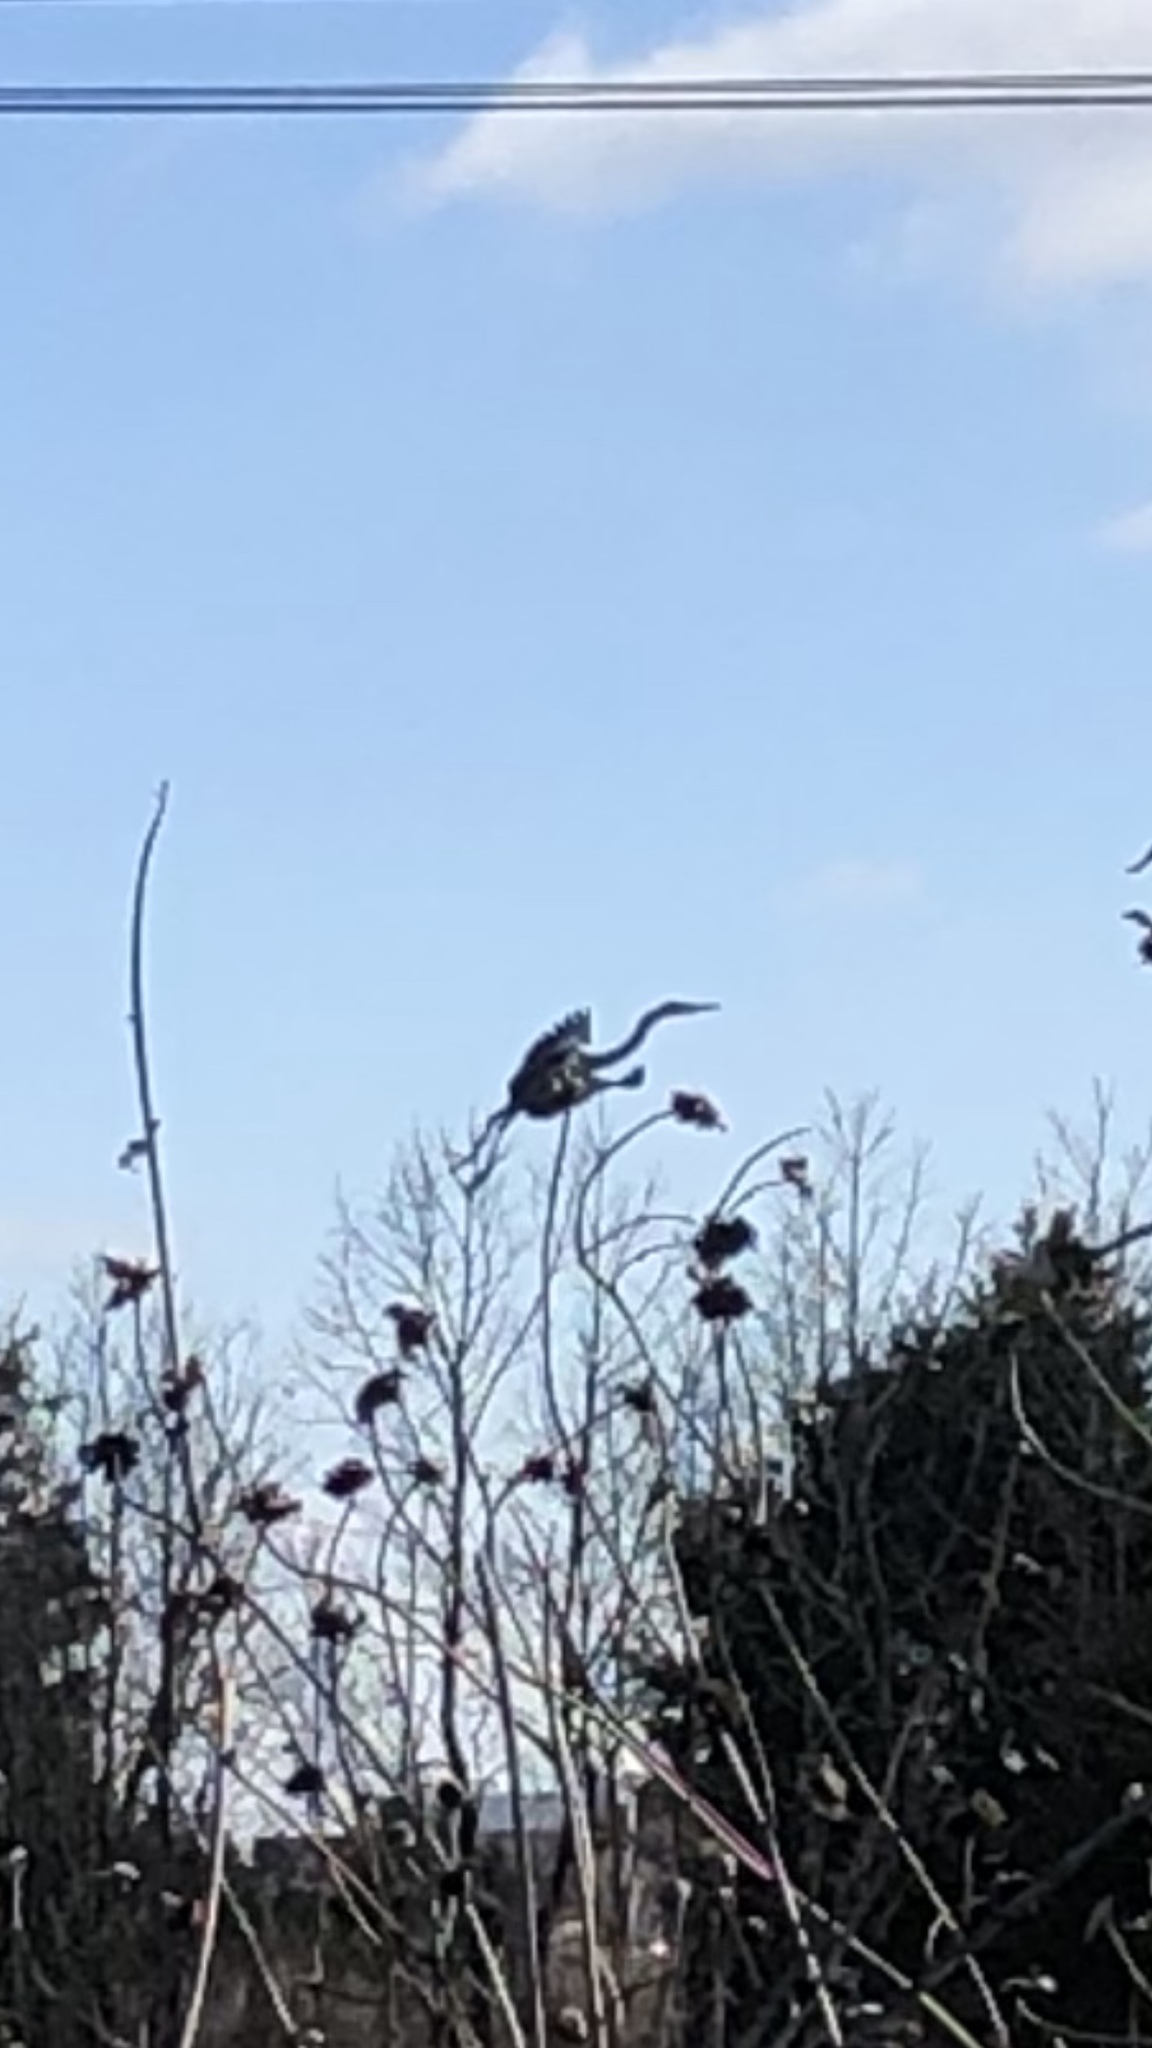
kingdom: Animalia
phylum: Chordata
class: Aves
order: Pelecaniformes
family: Ardeidae
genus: Ardea
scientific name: Ardea herodias
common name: Great blue heron
